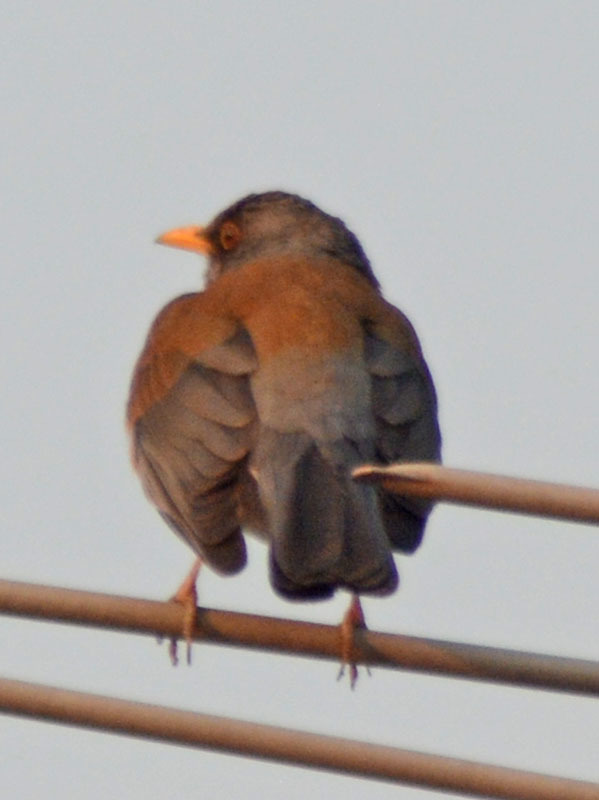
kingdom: Animalia
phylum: Chordata
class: Aves
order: Passeriformes
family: Turdidae
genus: Turdus
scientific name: Turdus rufopalliatus
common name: Rufous-backed robin
